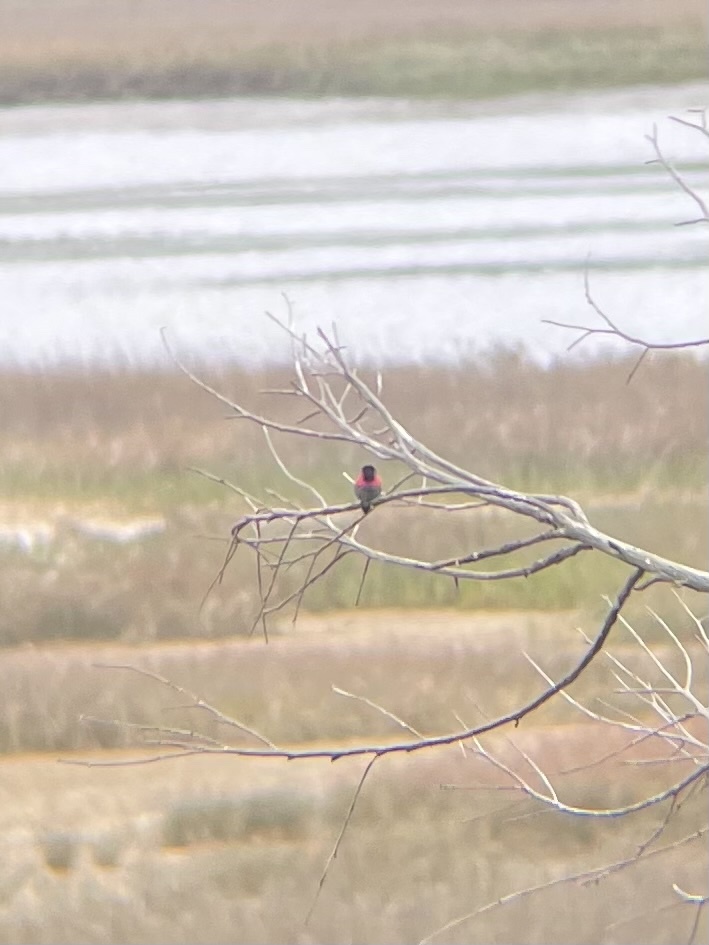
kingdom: Animalia
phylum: Chordata
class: Aves
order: Apodiformes
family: Trochilidae
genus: Calypte
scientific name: Calypte anna
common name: Anna's hummingbird
